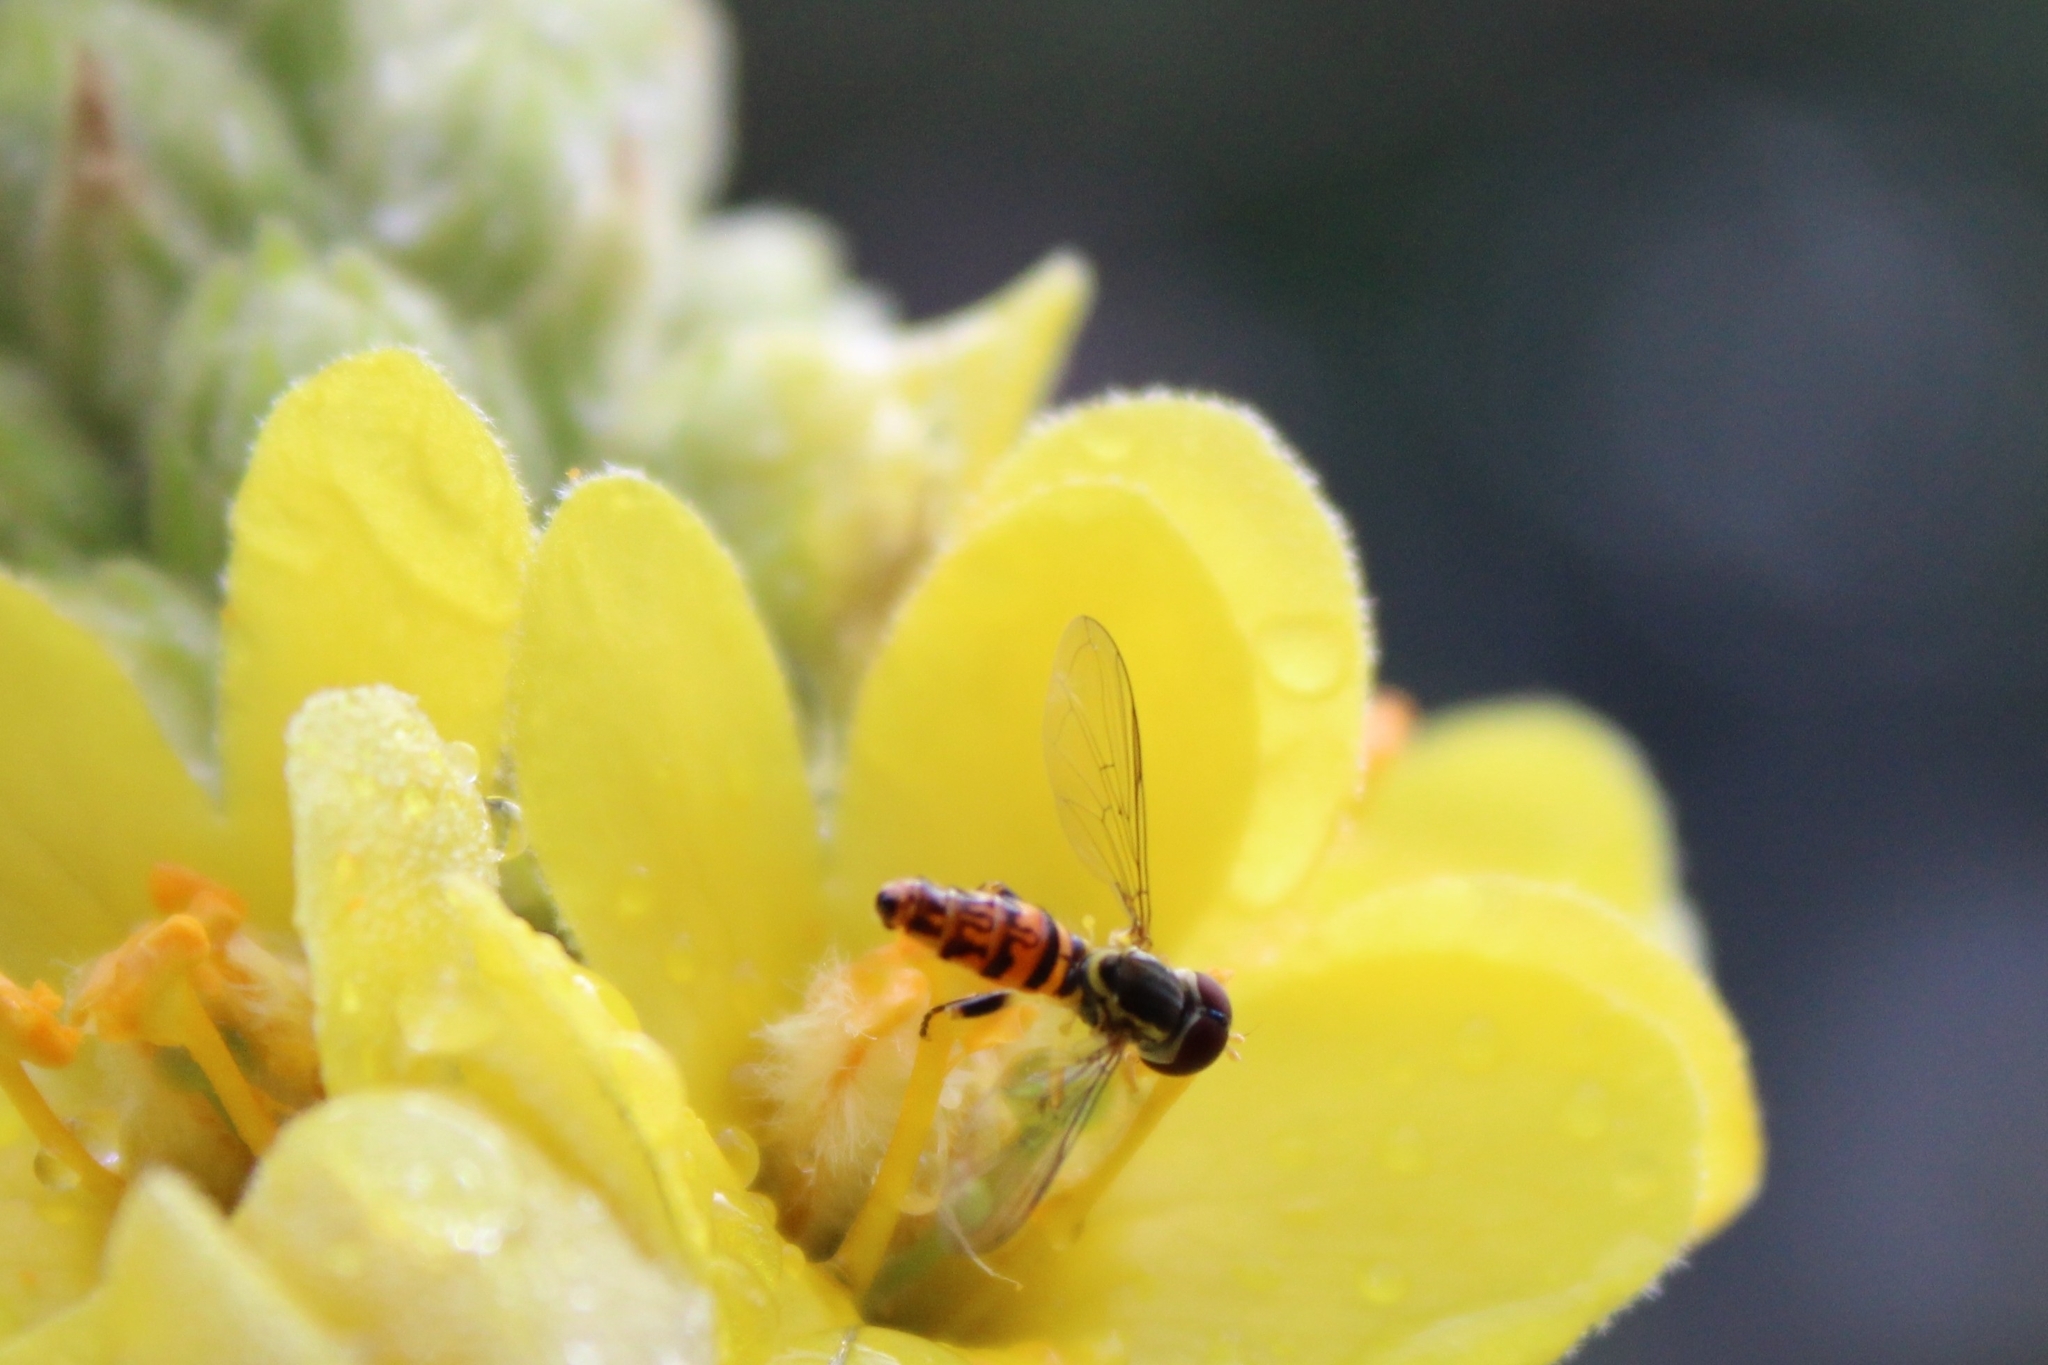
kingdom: Animalia
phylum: Arthropoda
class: Insecta
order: Diptera
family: Syrphidae
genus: Toxomerus
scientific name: Toxomerus geminatus
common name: Eastern calligrapher
